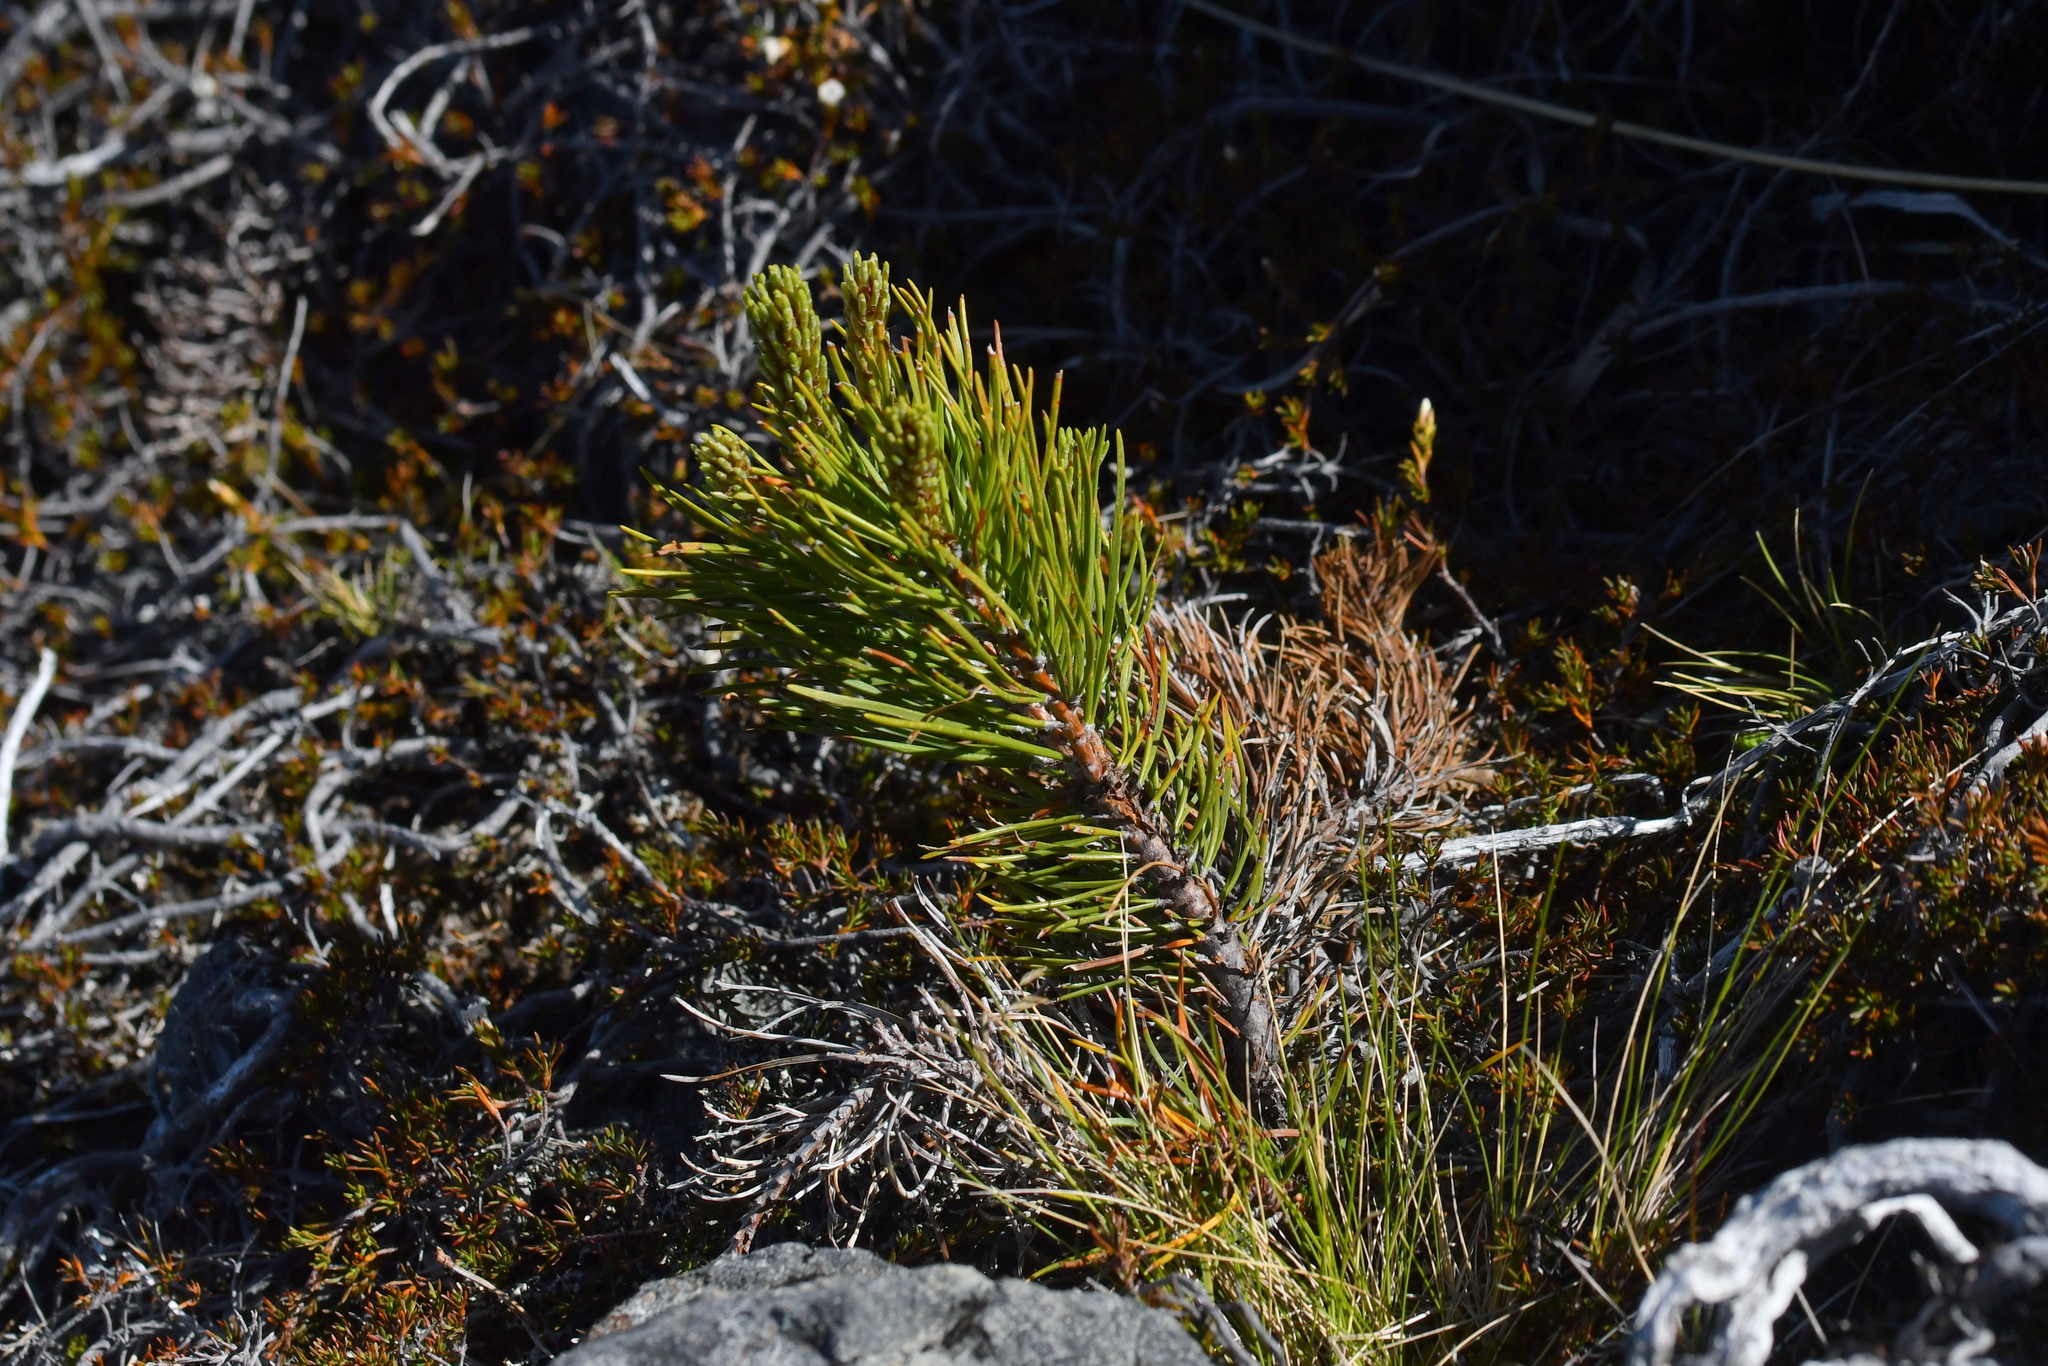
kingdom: Plantae
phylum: Tracheophyta
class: Pinopsida
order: Pinales
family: Pinaceae
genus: Pinus
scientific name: Pinus contorta
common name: Lodgepole pine
